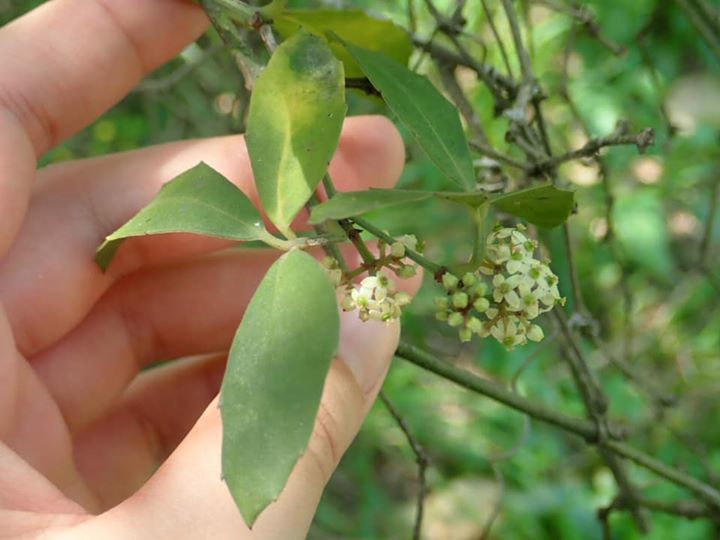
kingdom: Plantae
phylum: Tracheophyta
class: Magnoliopsida
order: Vitales
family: Vitaceae
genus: Tetrastigma
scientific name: Tetrastigma formosanum
